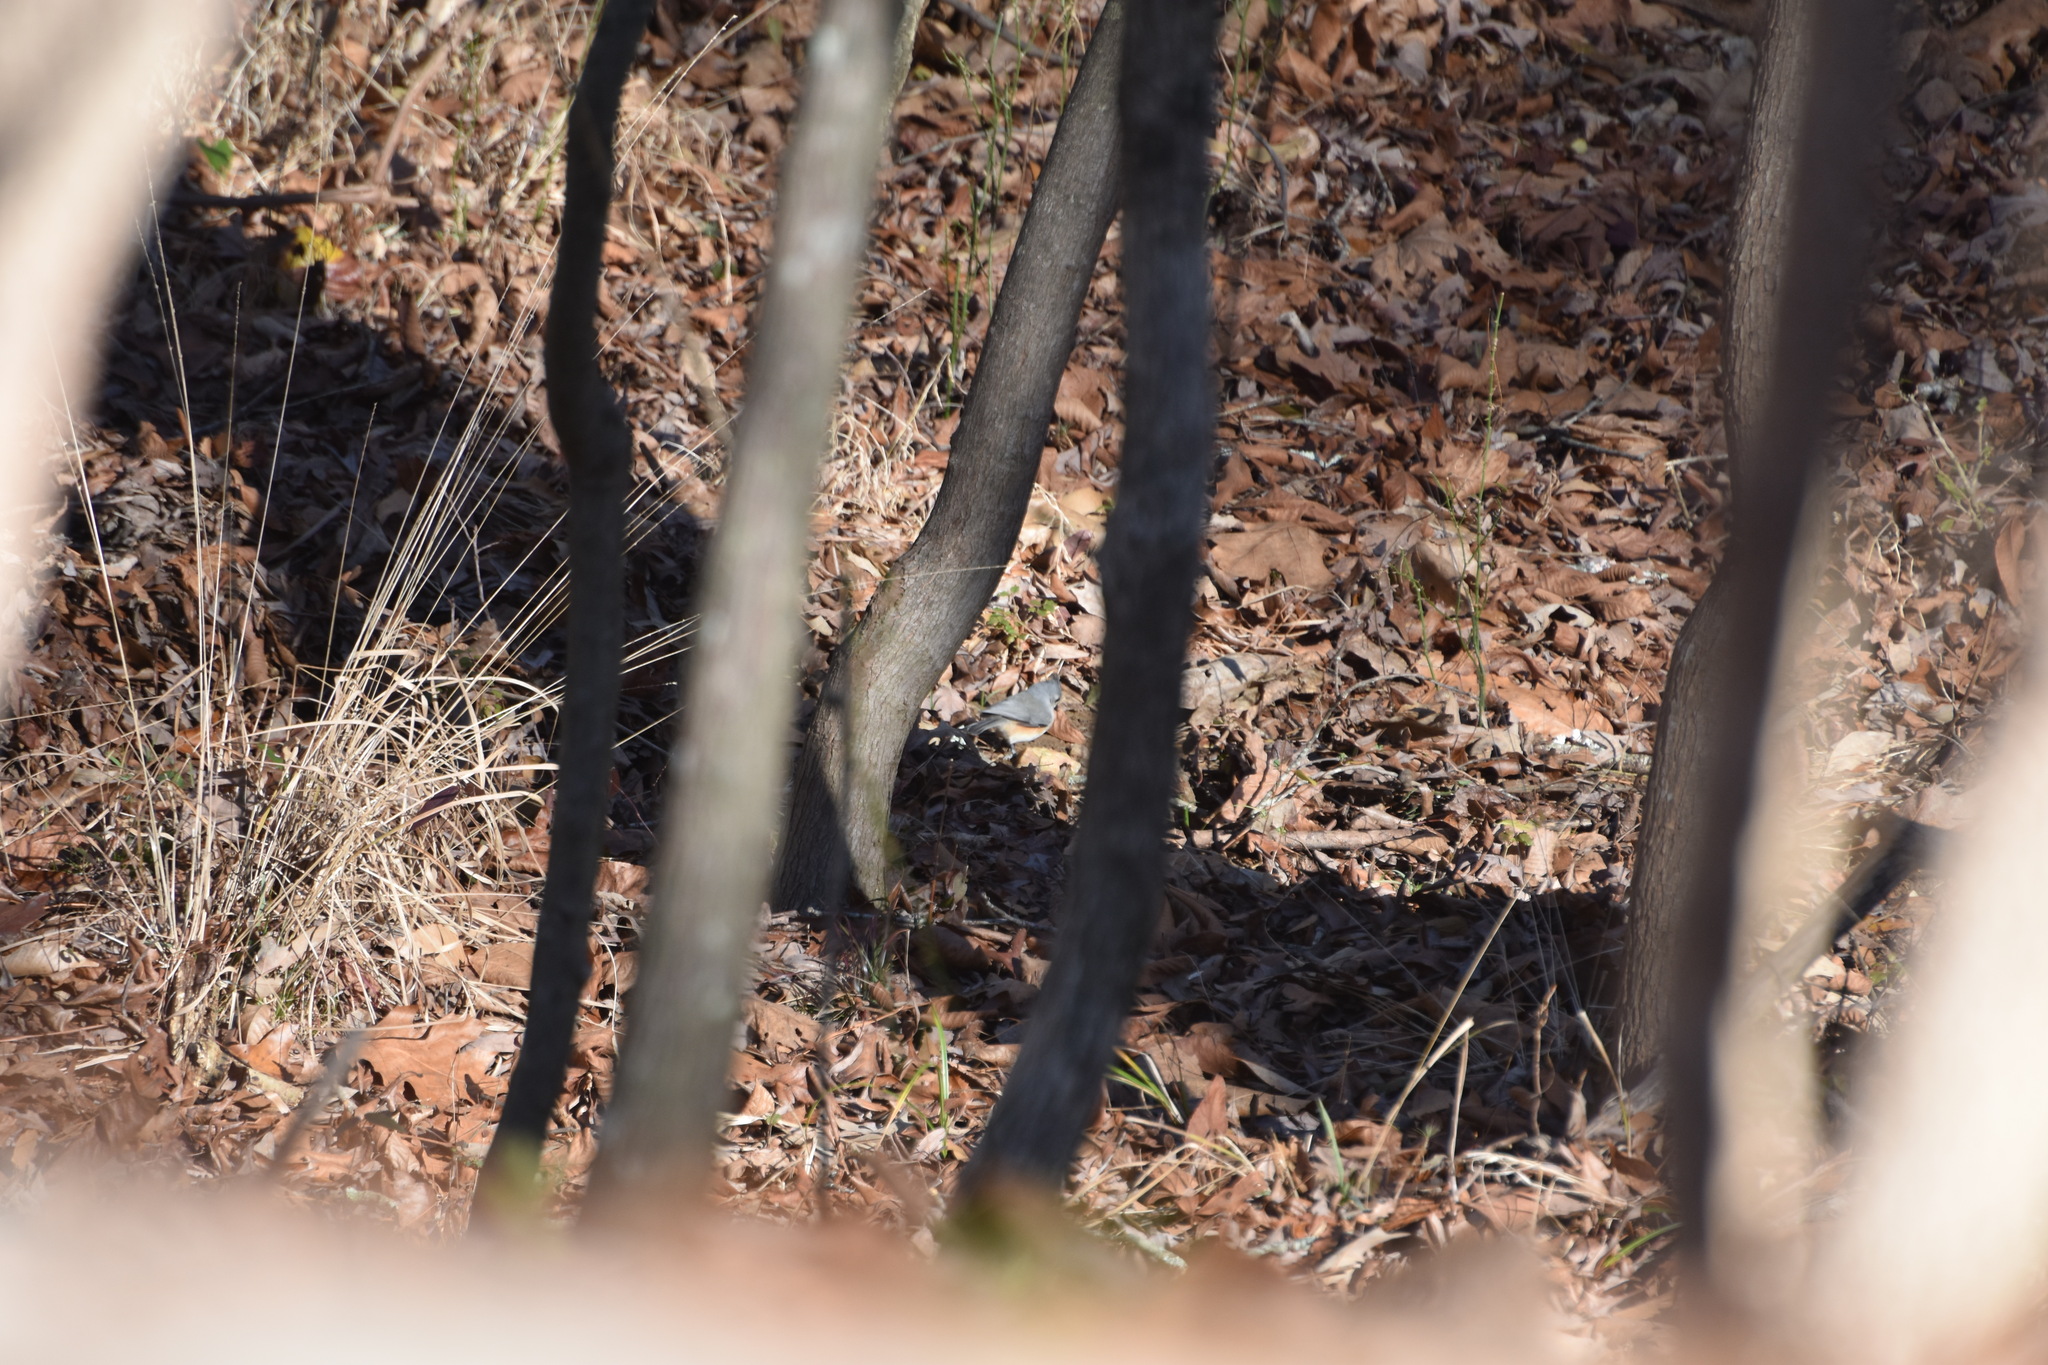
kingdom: Animalia
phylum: Chordata
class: Aves
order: Passeriformes
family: Paridae
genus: Baeolophus
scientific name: Baeolophus bicolor
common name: Tufted titmouse
